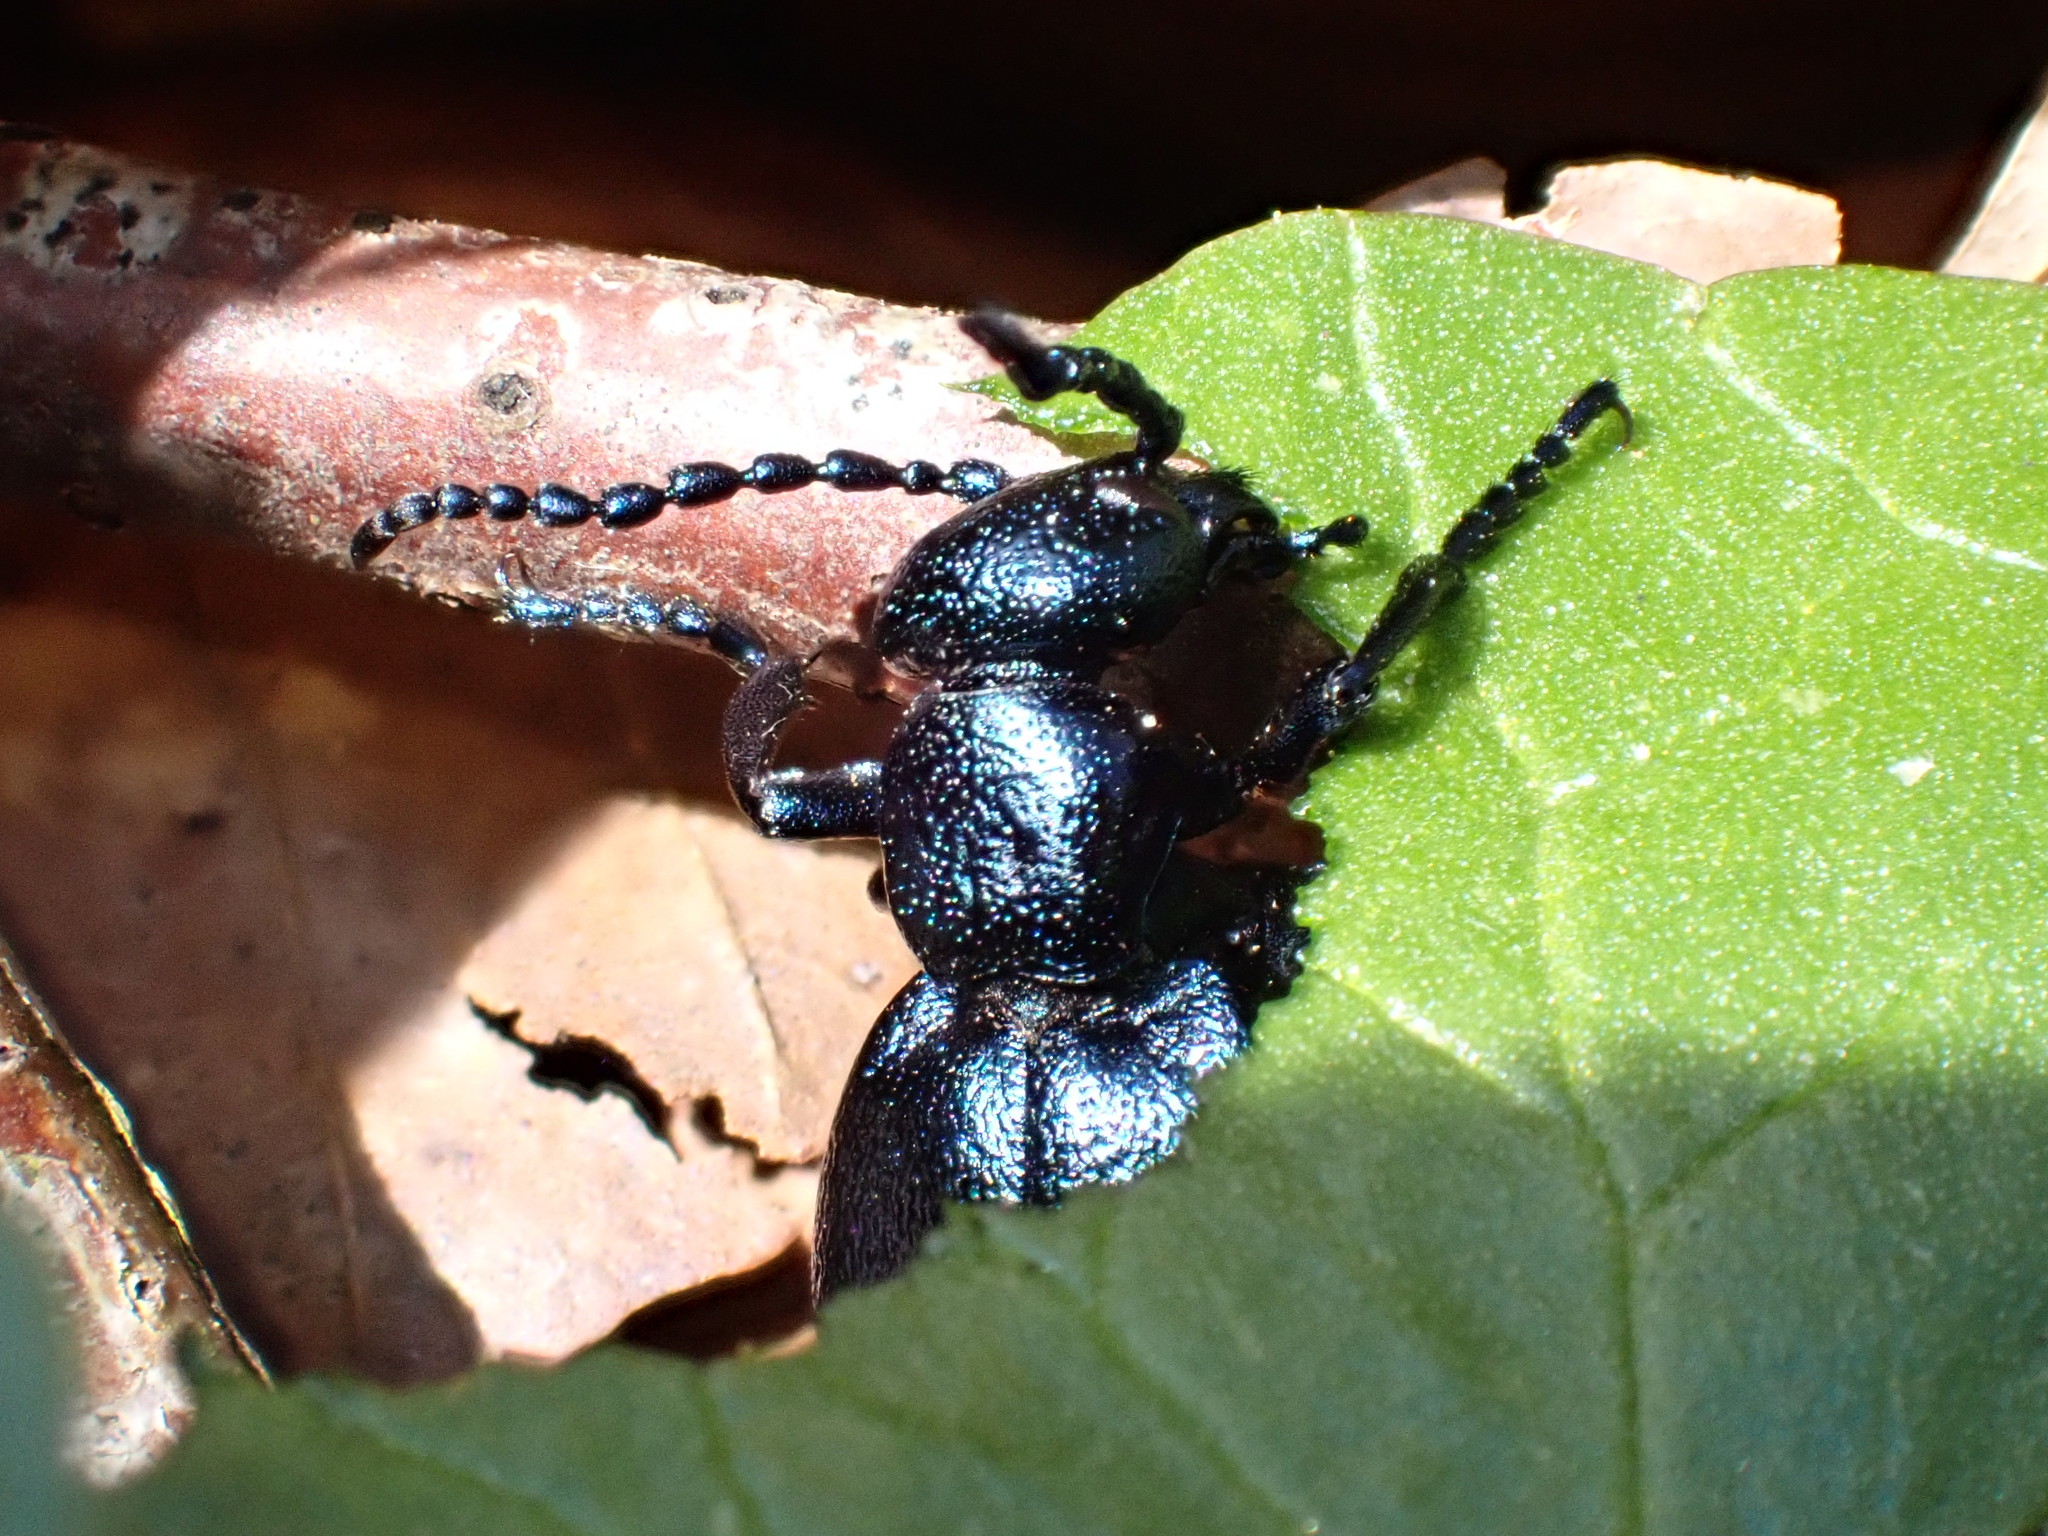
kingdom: Animalia
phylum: Arthropoda
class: Insecta
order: Coleoptera
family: Meloidae
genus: Meloe
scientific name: Meloe violaceus
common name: Violet oil-beetle
